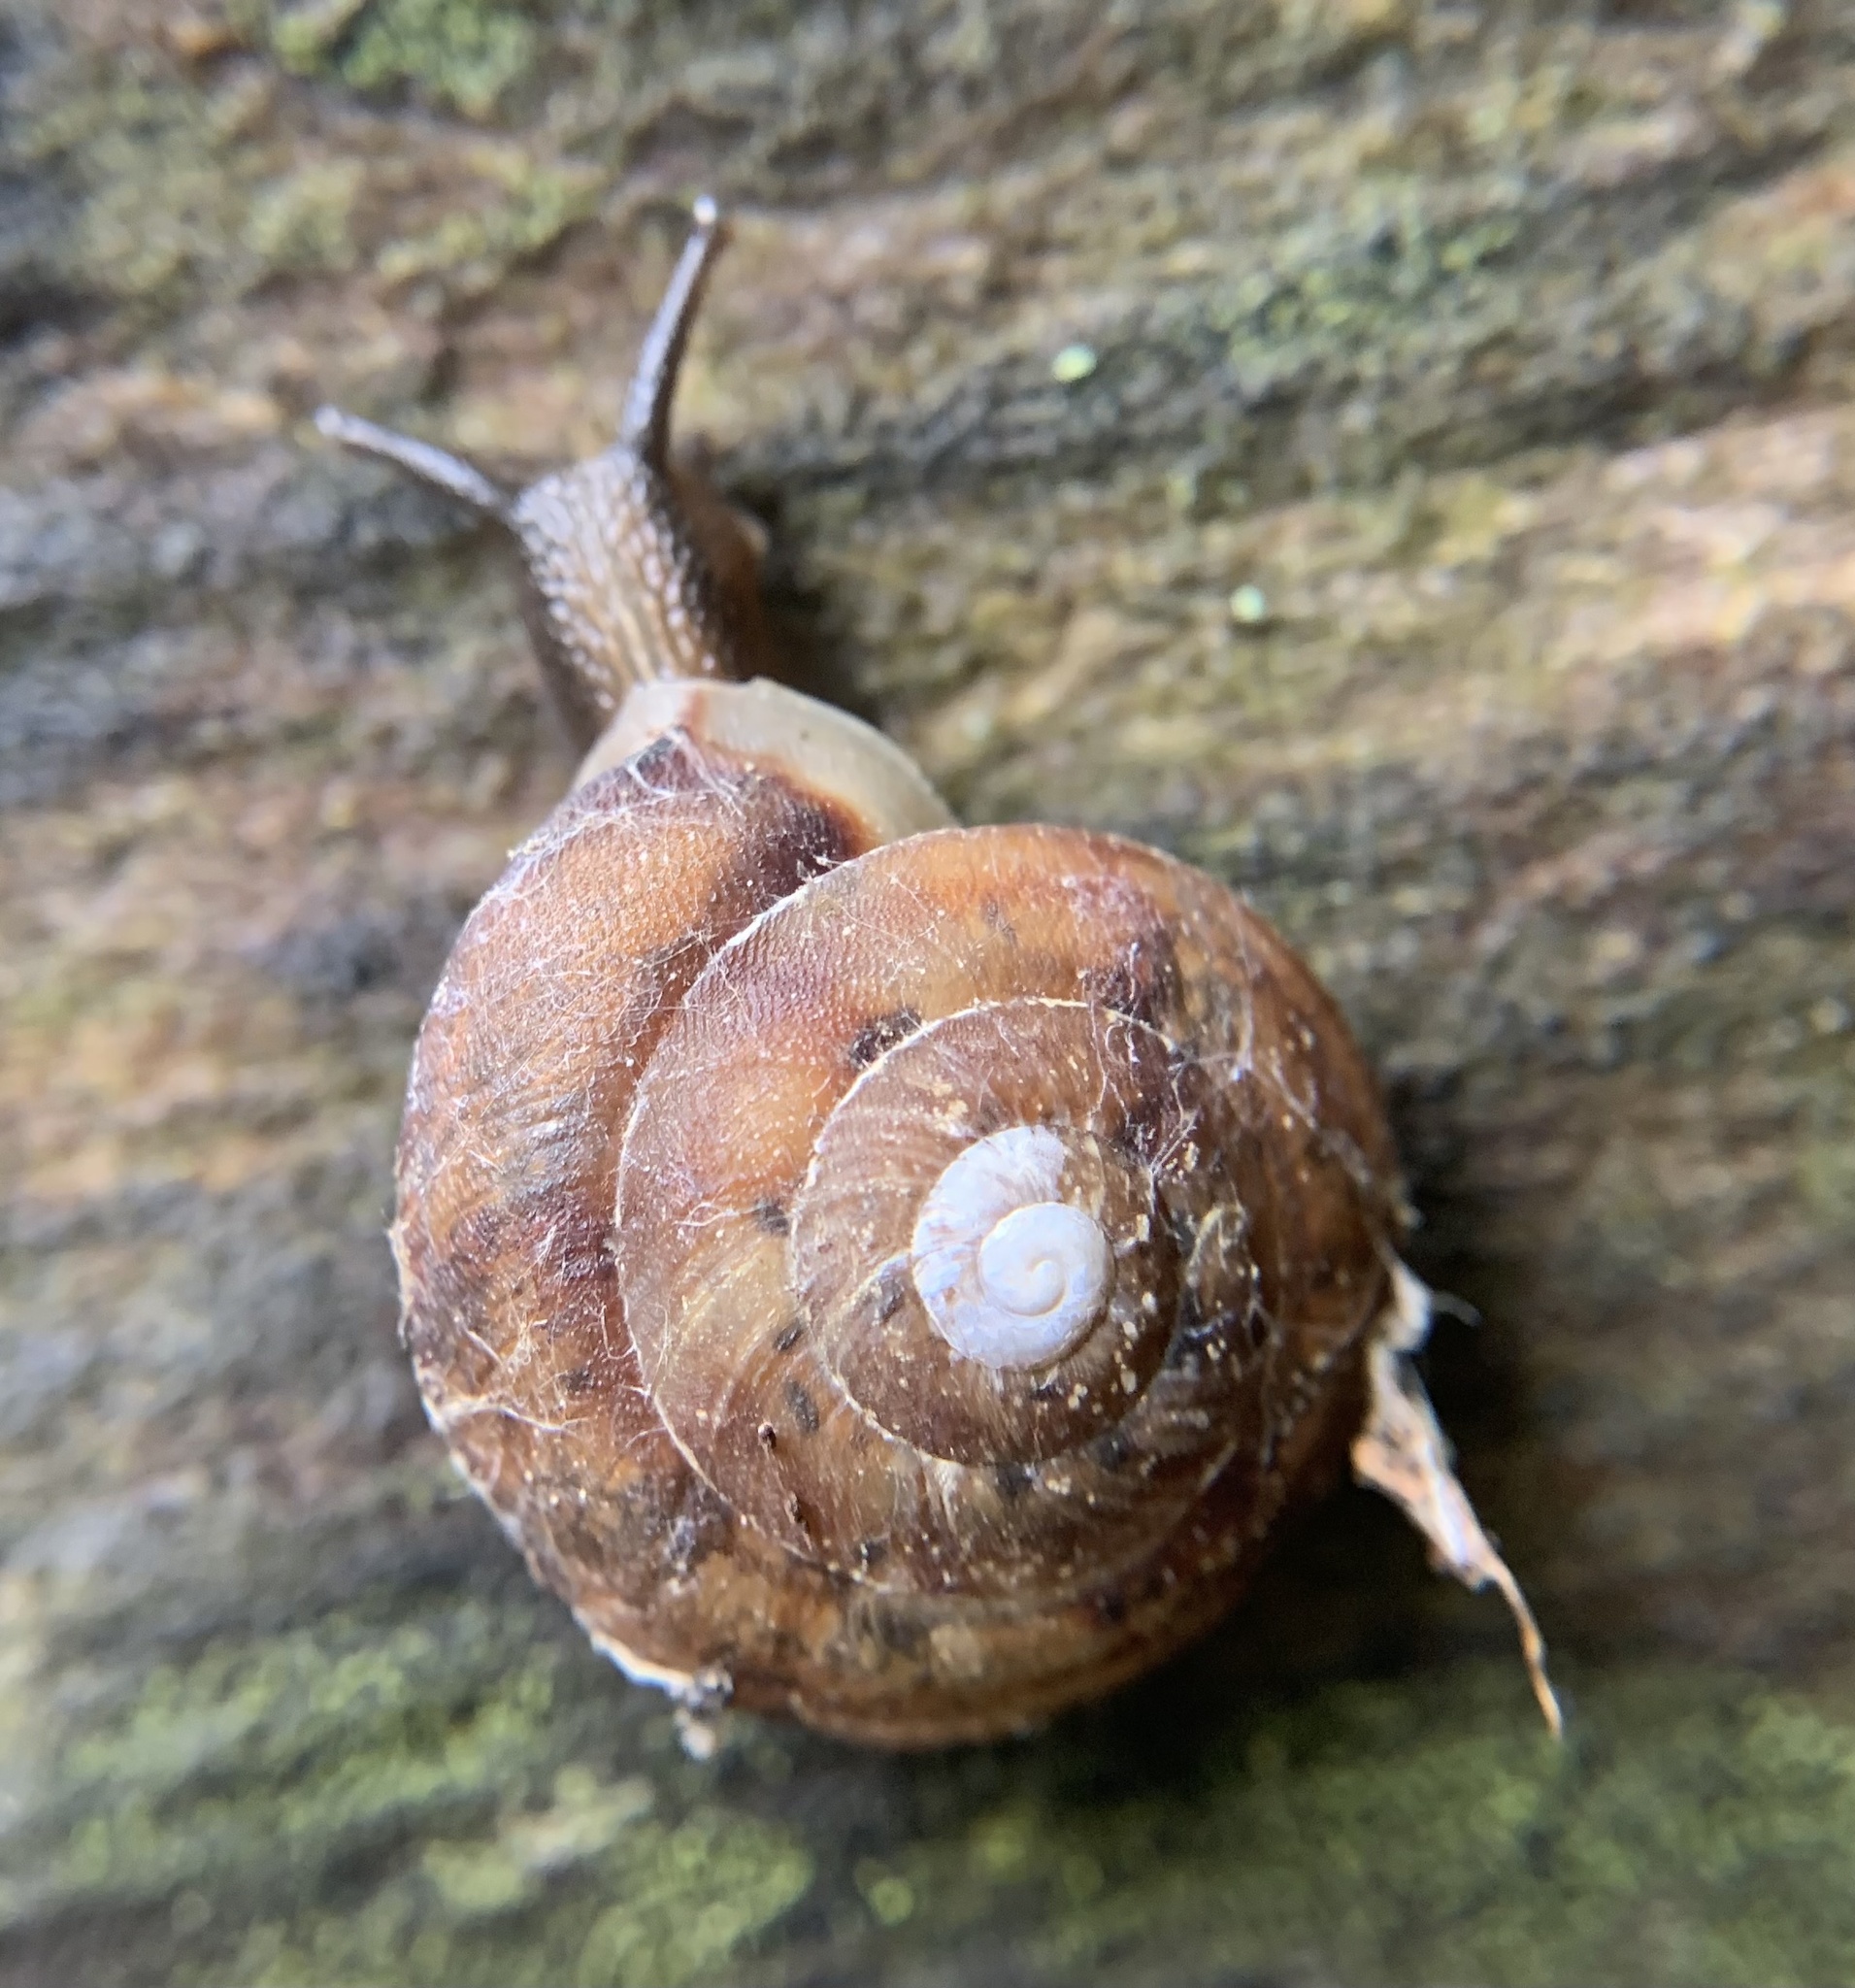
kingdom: Animalia
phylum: Mollusca
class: Gastropoda
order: Stylommatophora
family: Helicidae
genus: Helicigona
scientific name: Helicigona lapicida
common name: Lapidary snail
